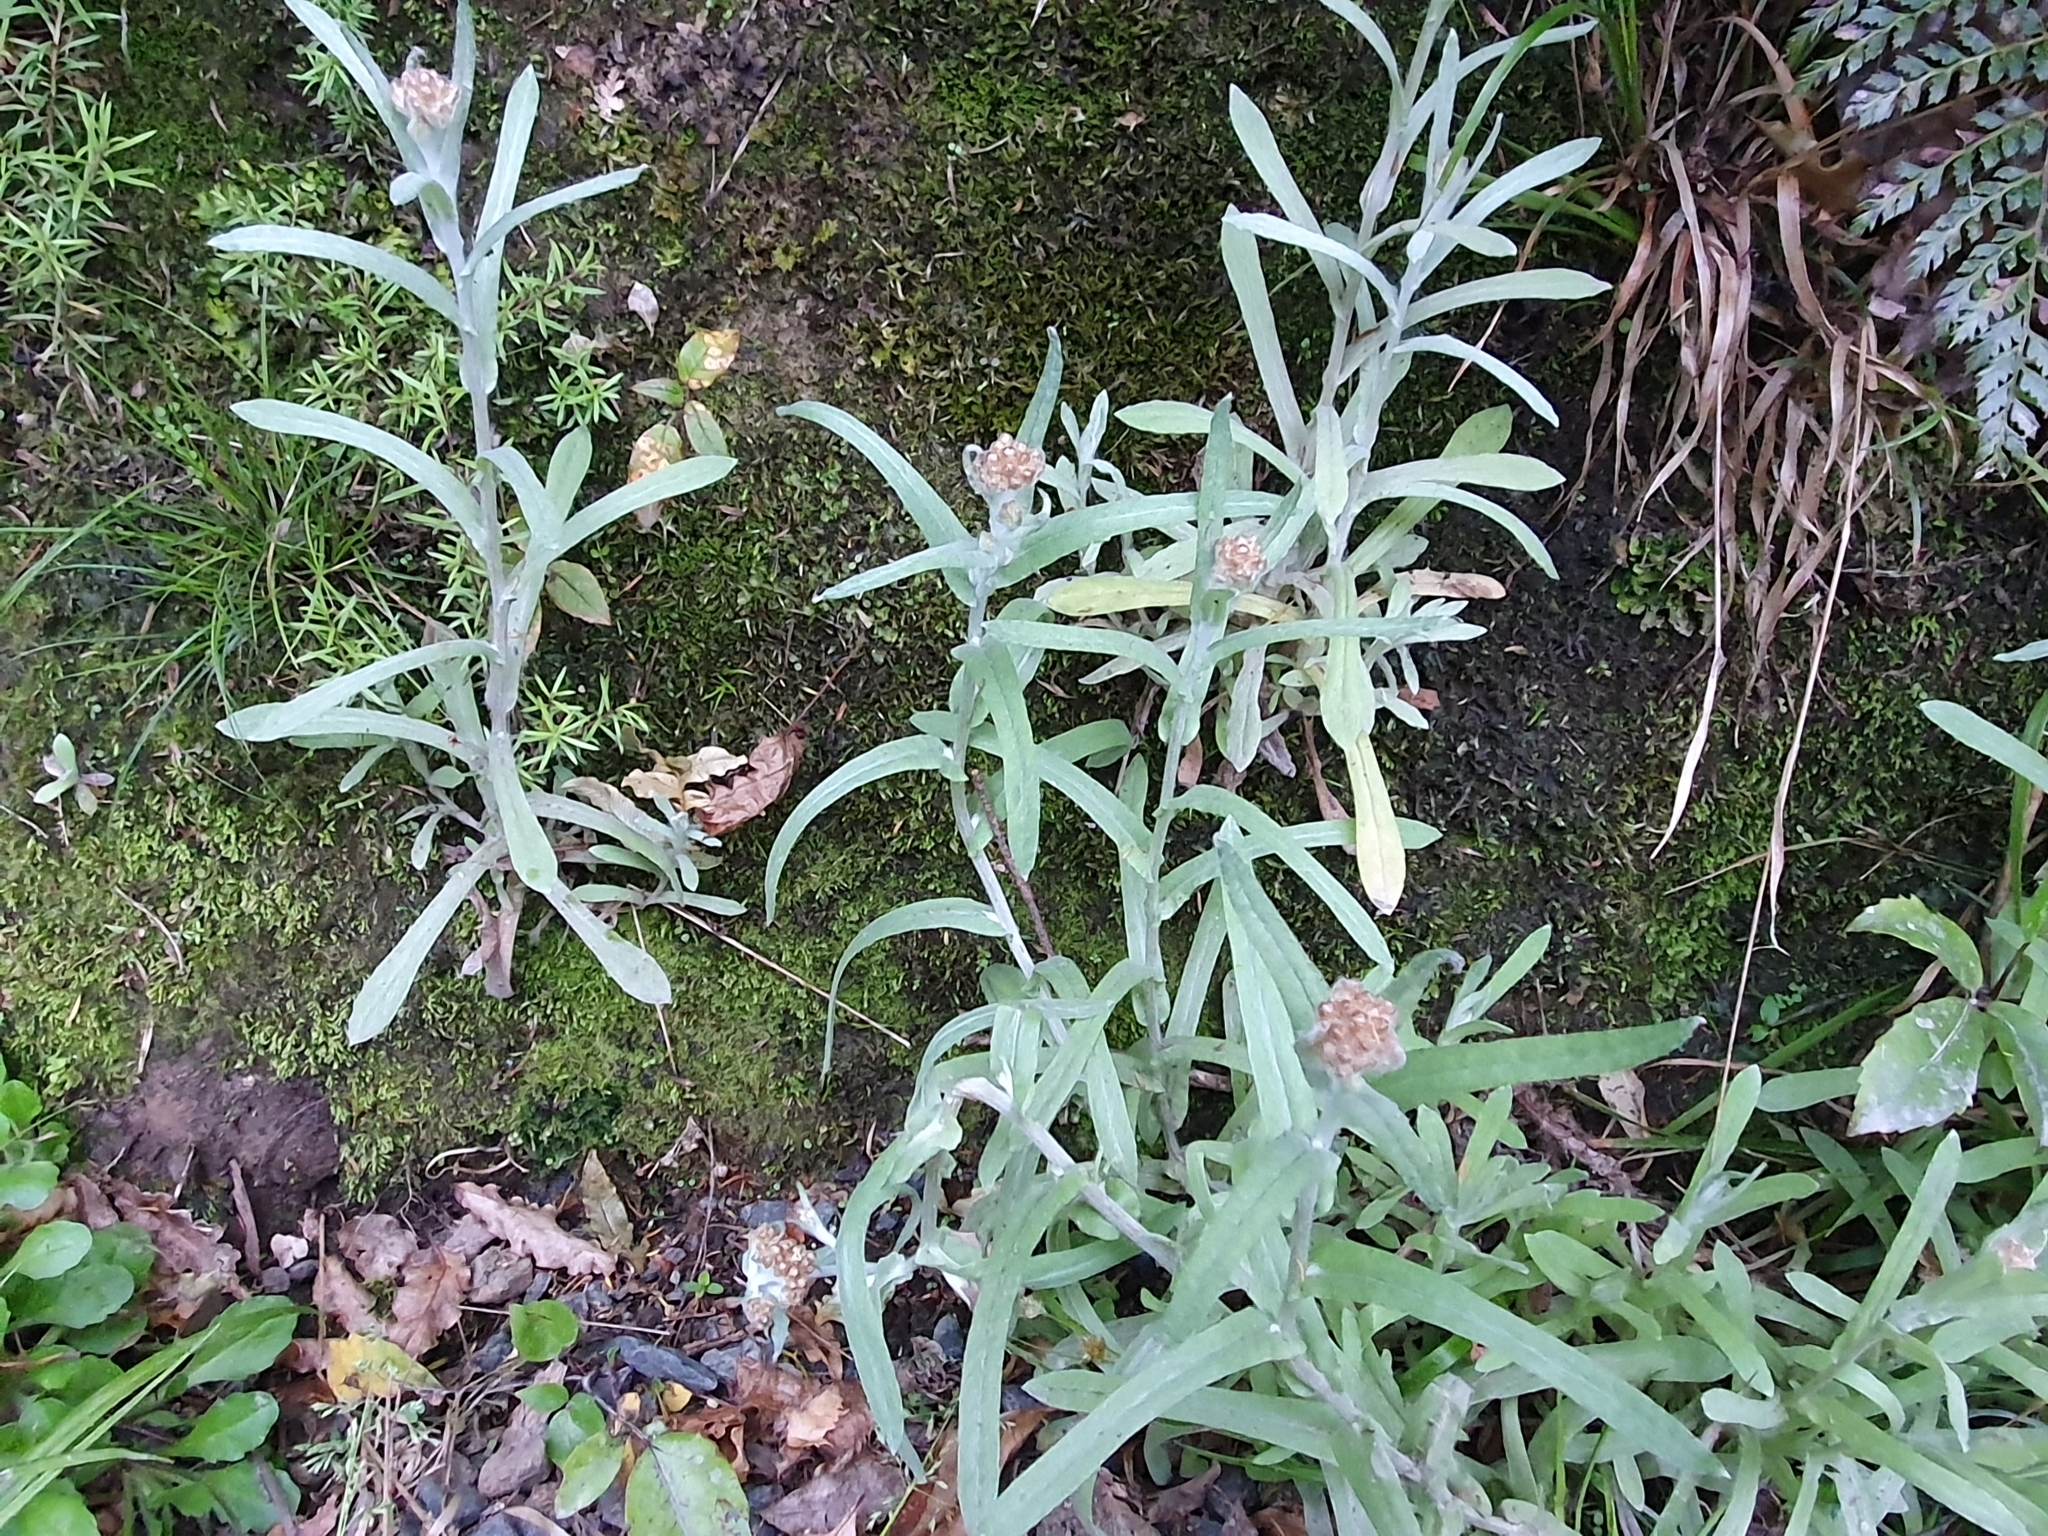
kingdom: Plantae
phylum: Tracheophyta
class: Magnoliopsida
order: Asterales
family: Asteraceae
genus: Helichrysum
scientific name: Helichrysum luteoalbum
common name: Daisy
